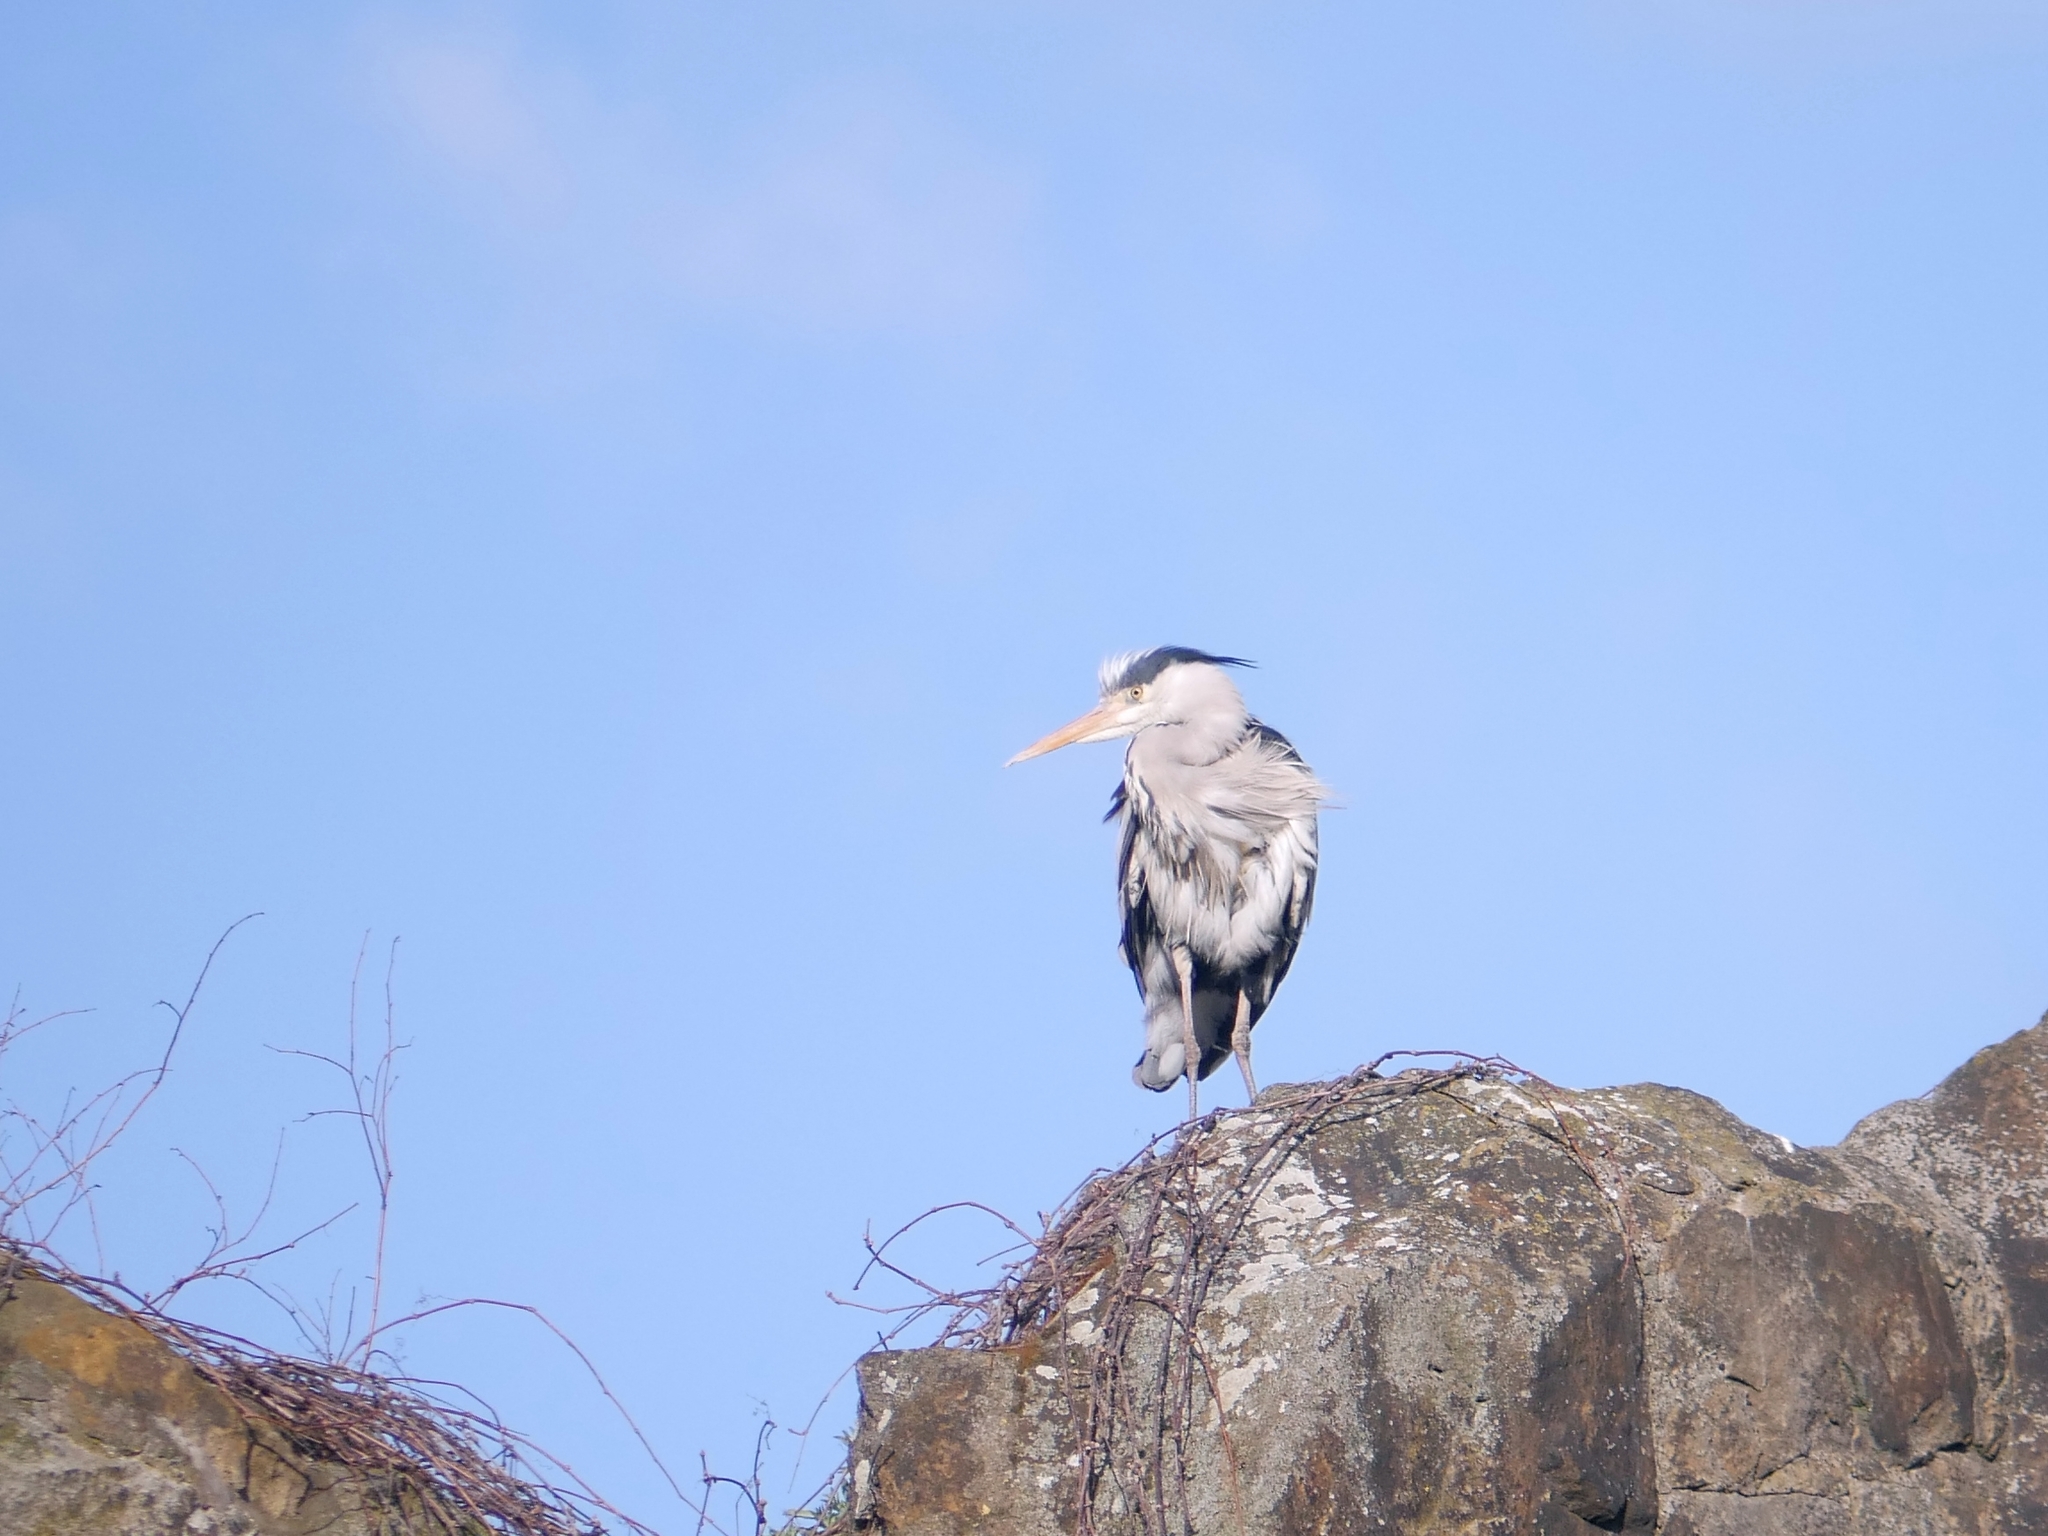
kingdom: Animalia
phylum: Chordata
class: Aves
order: Pelecaniformes
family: Ardeidae
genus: Ardea
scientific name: Ardea cinerea
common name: Grey heron
